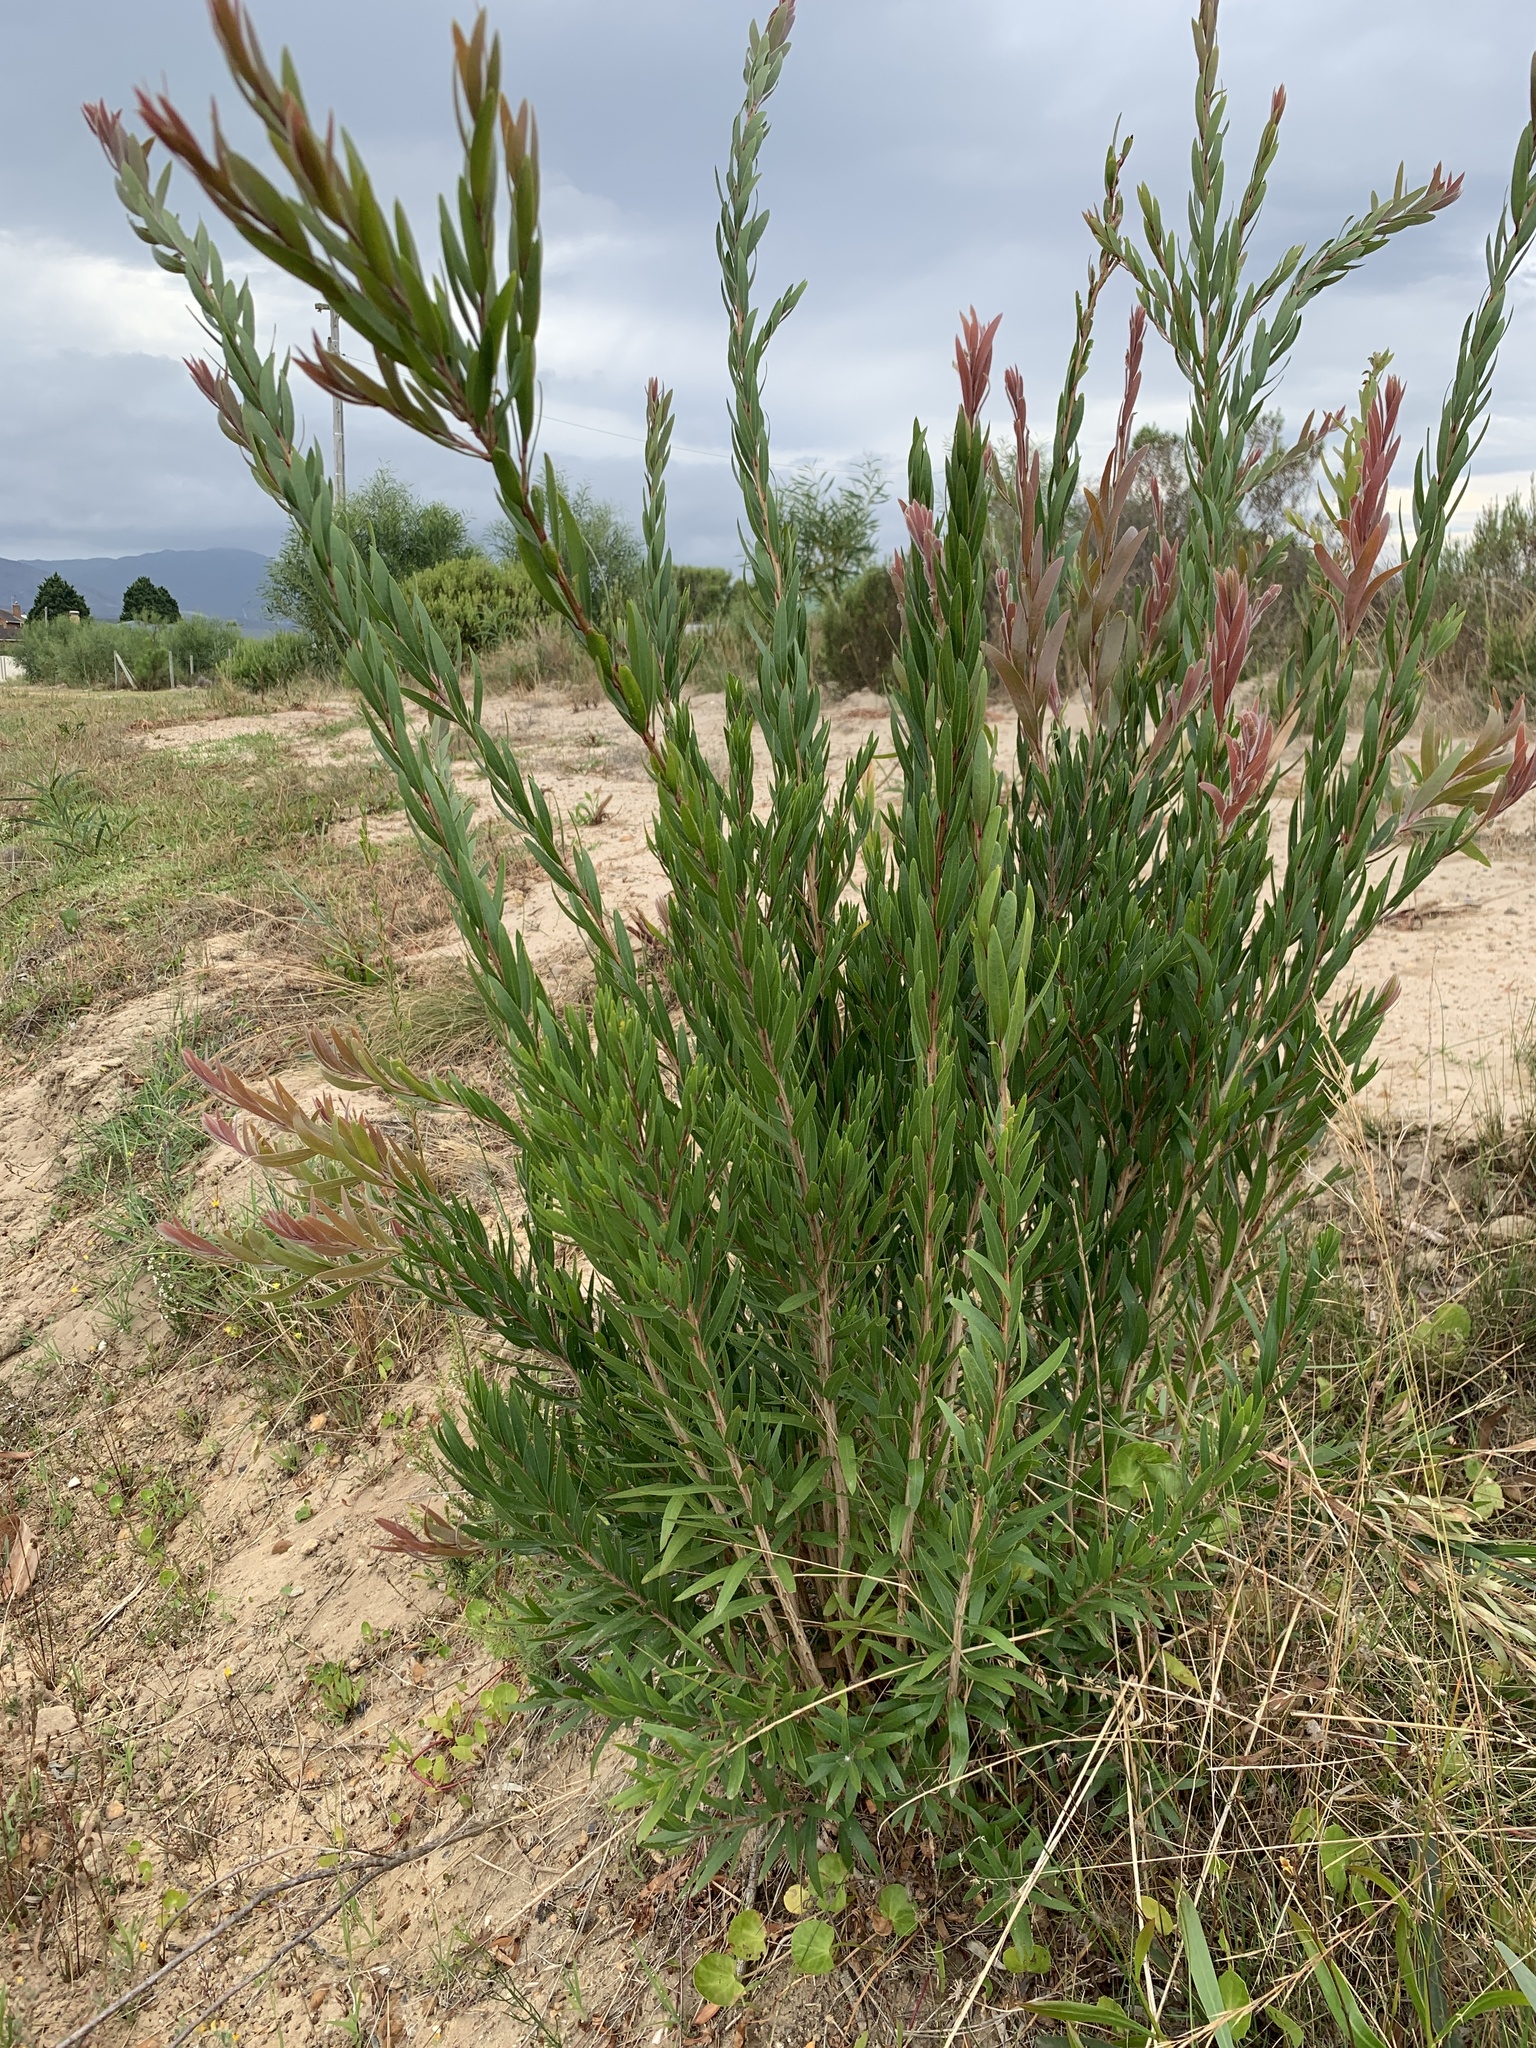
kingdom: Plantae
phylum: Tracheophyta
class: Magnoliopsida
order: Myrtales
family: Myrtaceae
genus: Callistemon
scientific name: Callistemon viminalis
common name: Drooping bottlebrush
